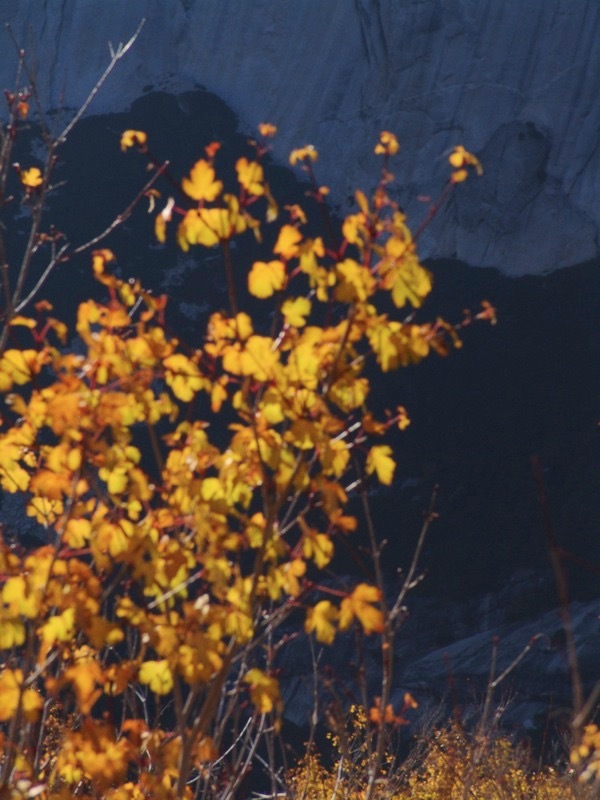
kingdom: Plantae
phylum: Tracheophyta
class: Magnoliopsida
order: Sapindales
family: Sapindaceae
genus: Acer
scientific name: Acer glabrum
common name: Rocky mountain maple
